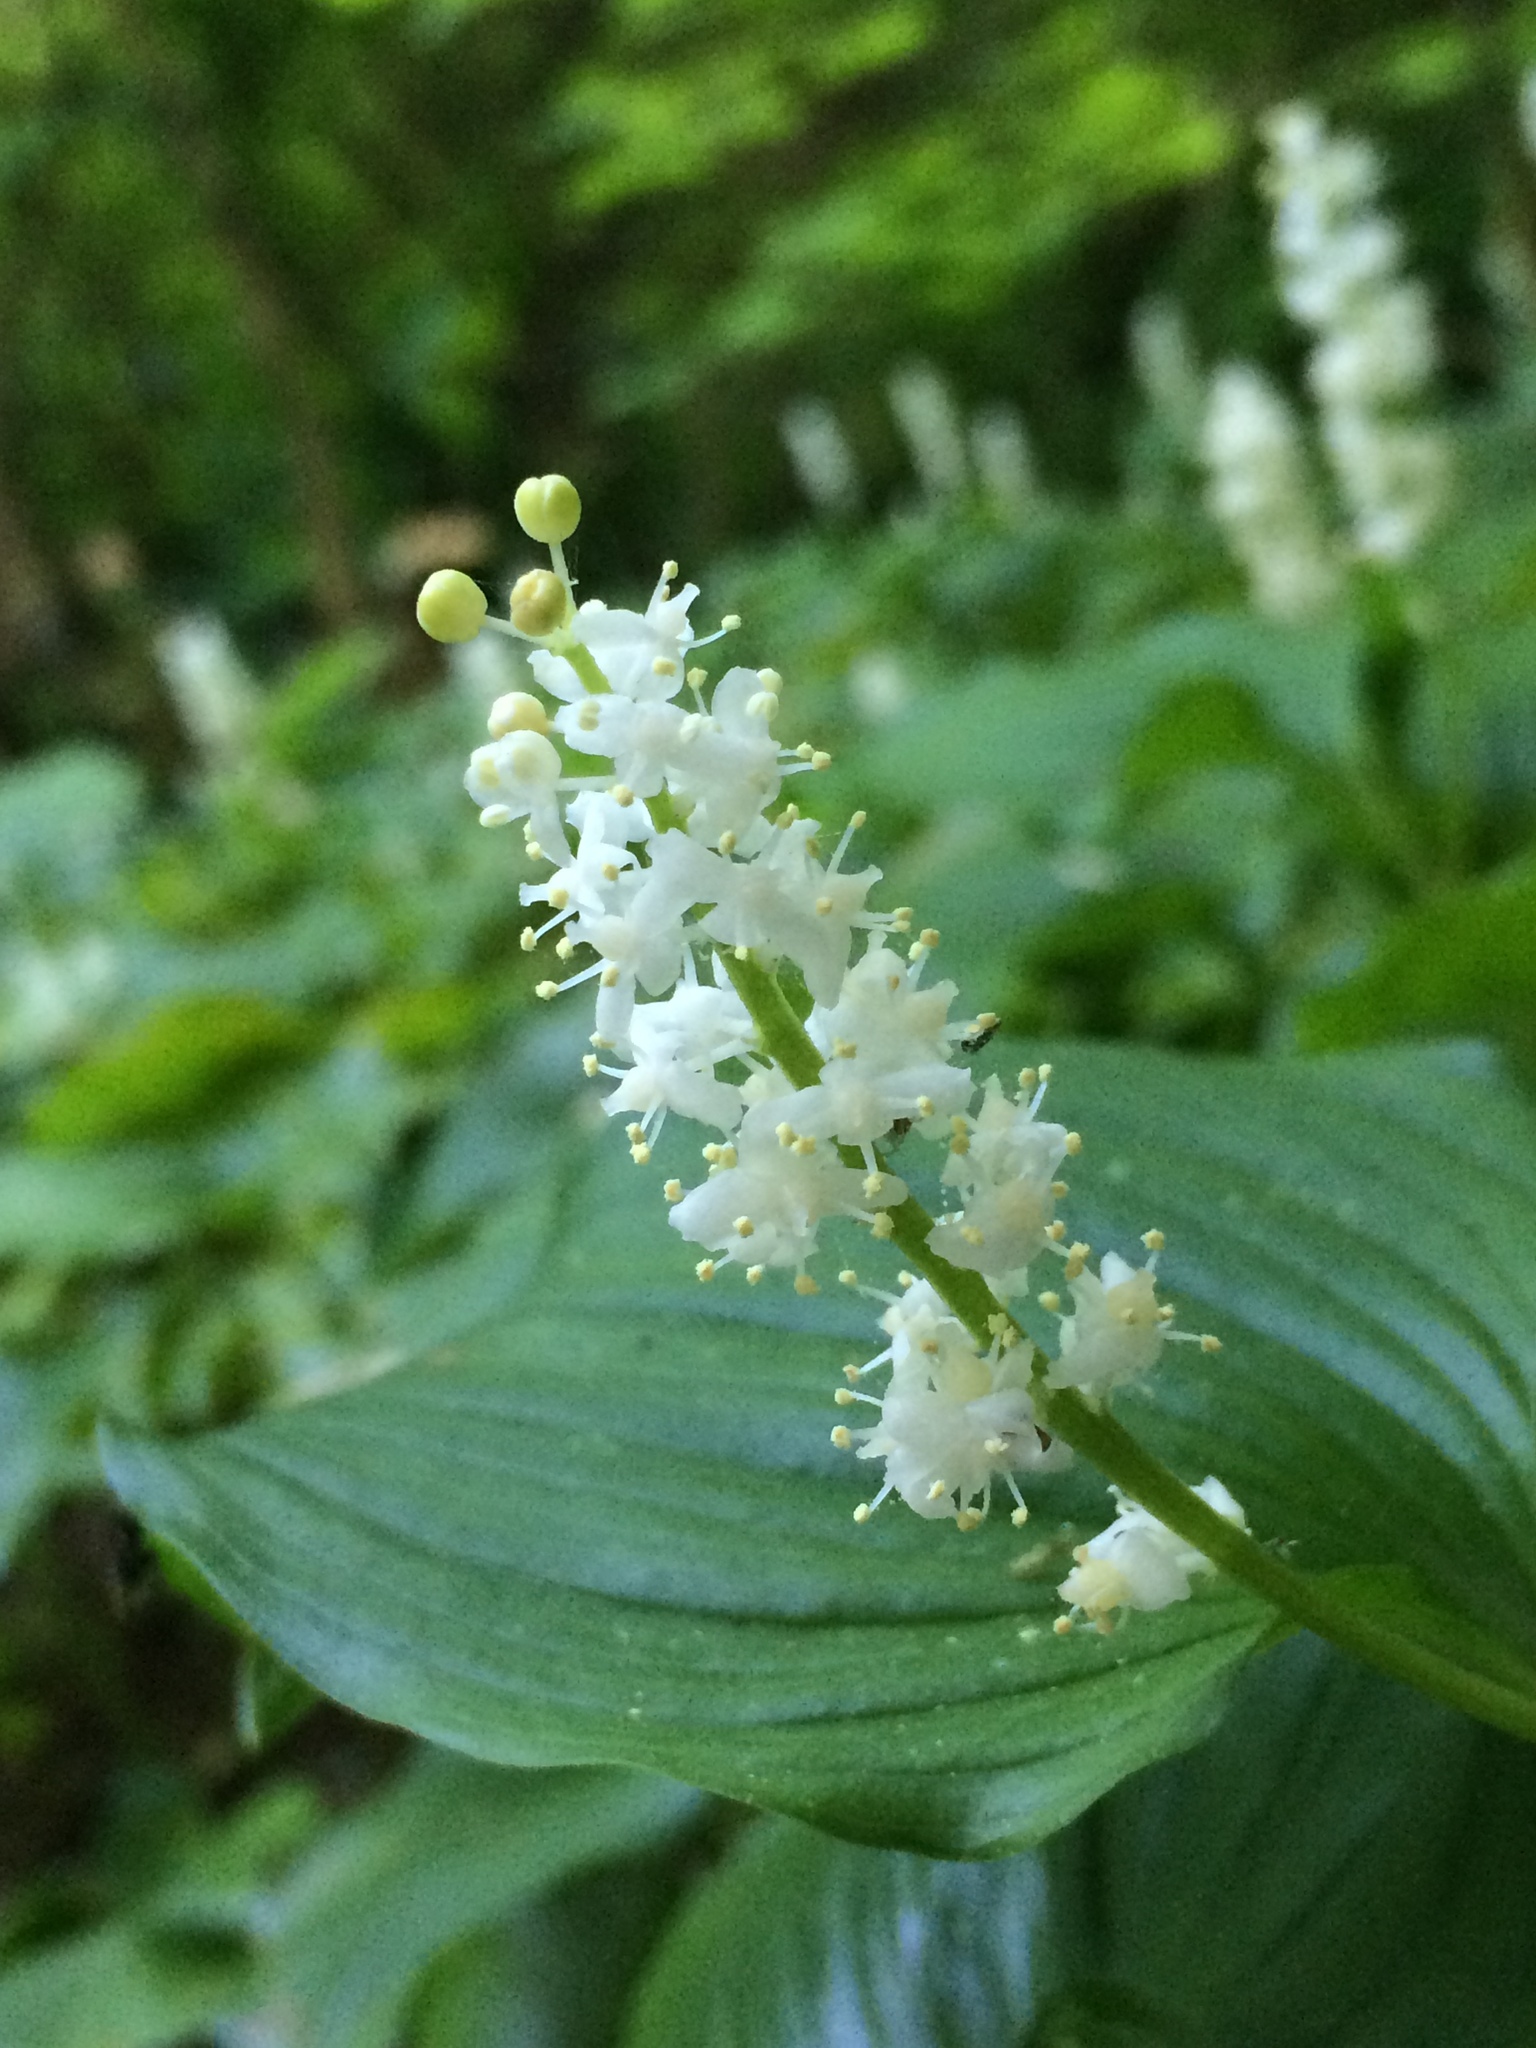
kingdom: Plantae
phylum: Tracheophyta
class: Liliopsida
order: Asparagales
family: Asparagaceae
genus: Maianthemum
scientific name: Maianthemum dilatatum
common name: False lily-of-the-valley
